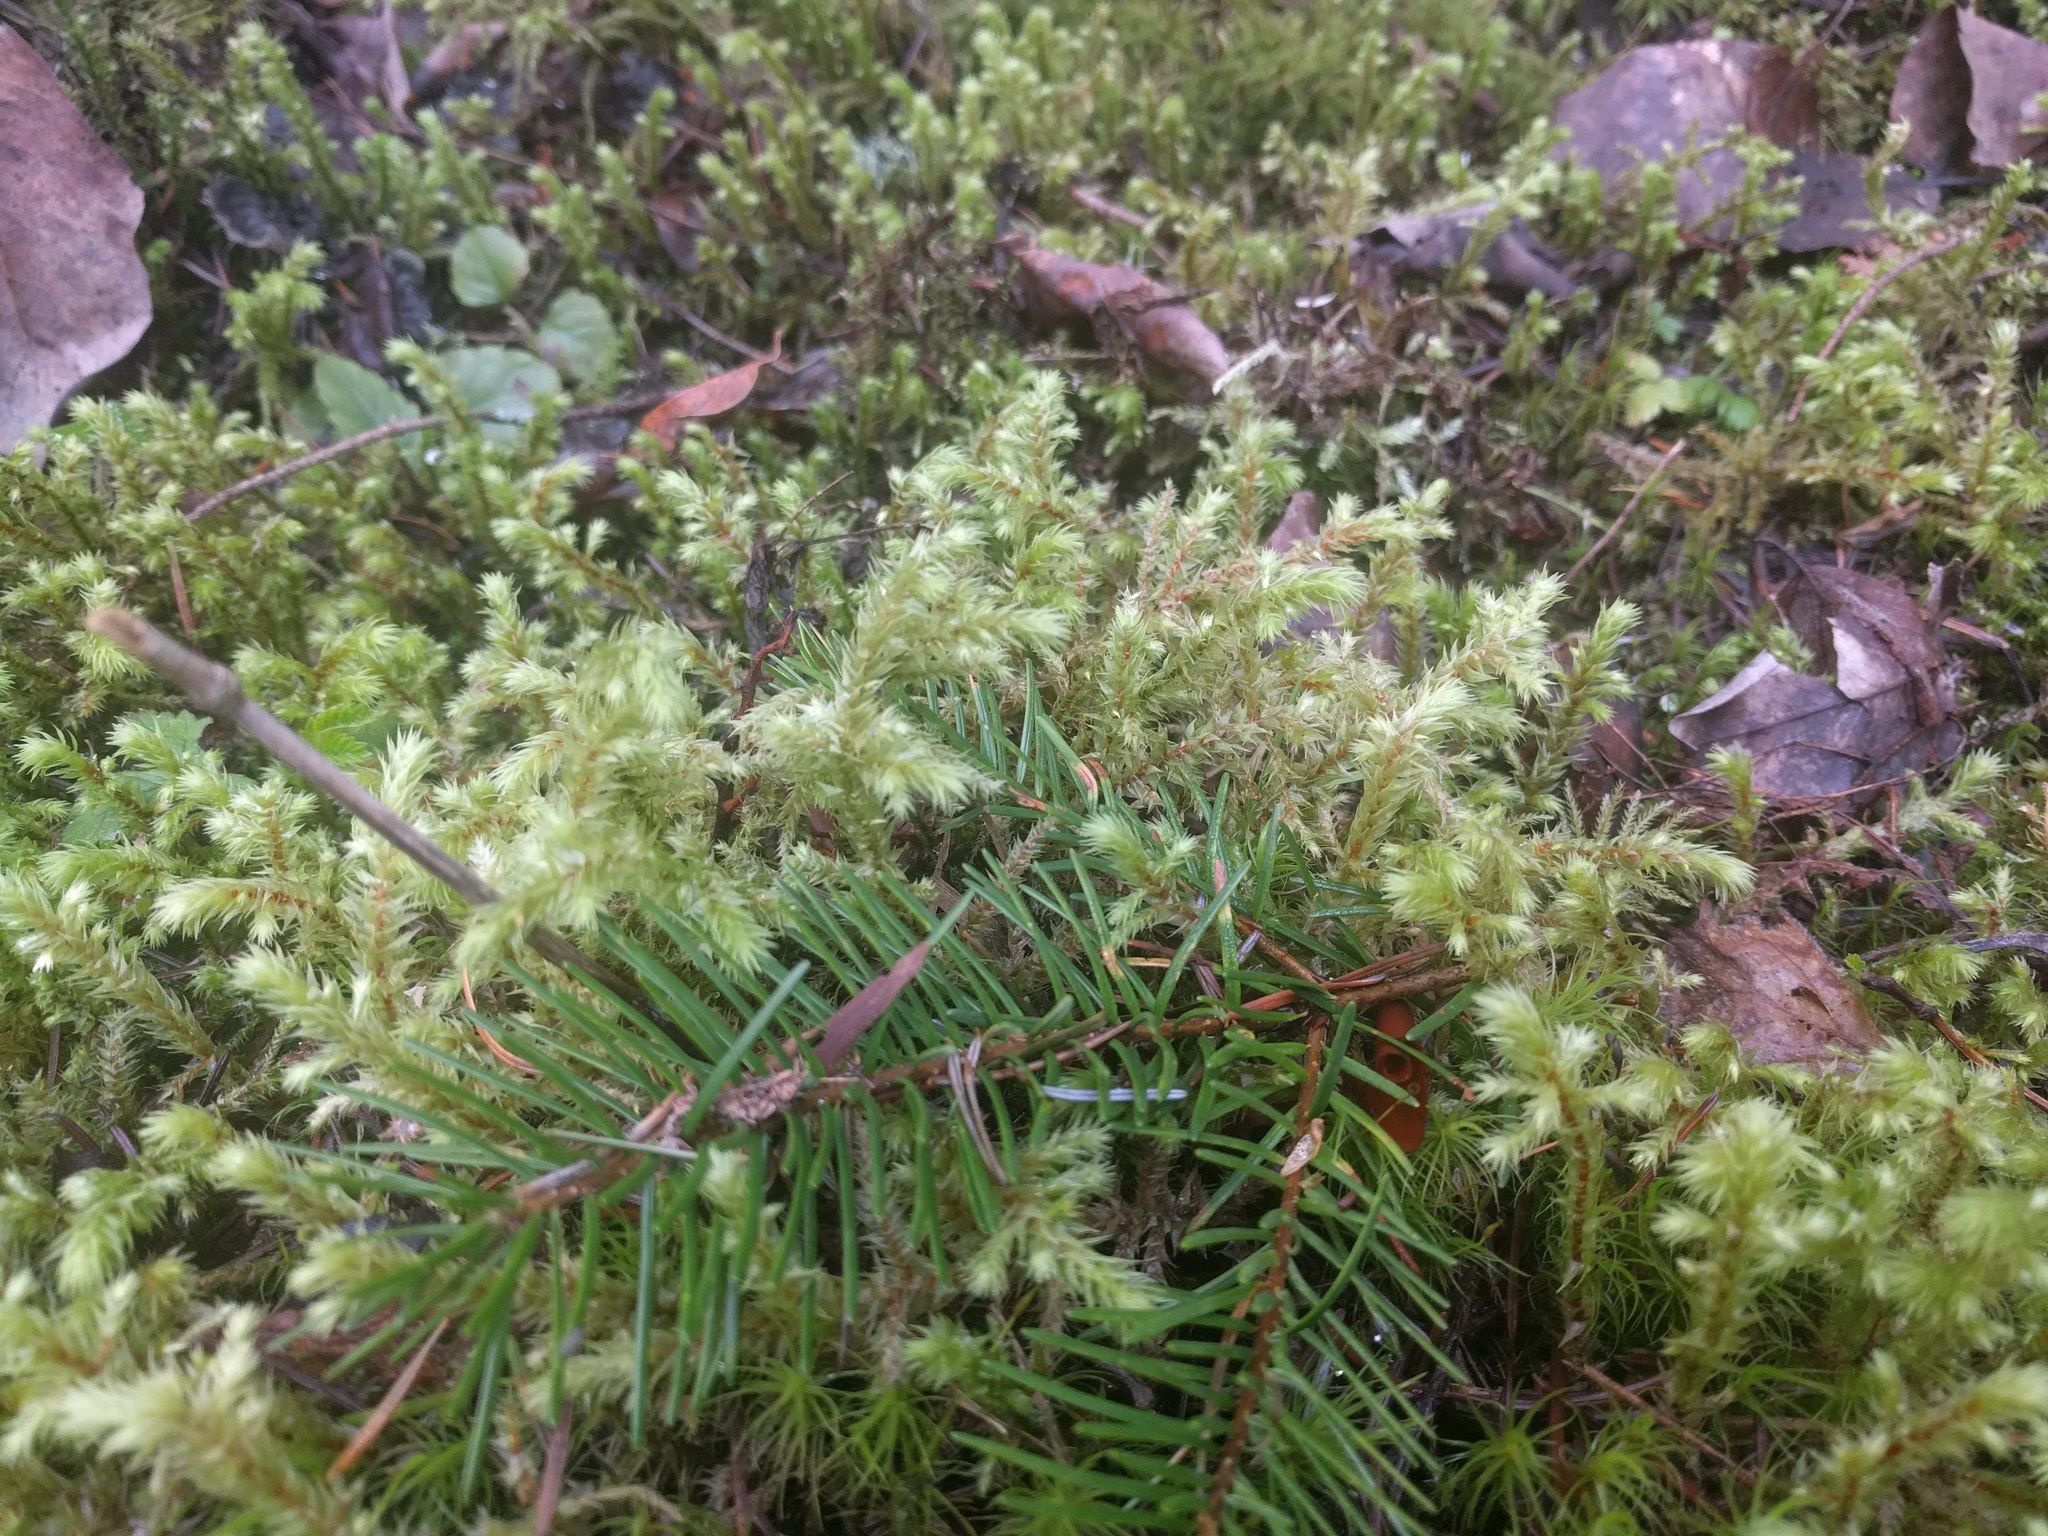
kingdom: Plantae
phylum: Bryophyta
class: Bryopsida
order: Hypnales
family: Hylocomiaceae
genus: Hylocomiadelphus
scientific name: Hylocomiadelphus triquetrus
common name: Rough goose neck moss
